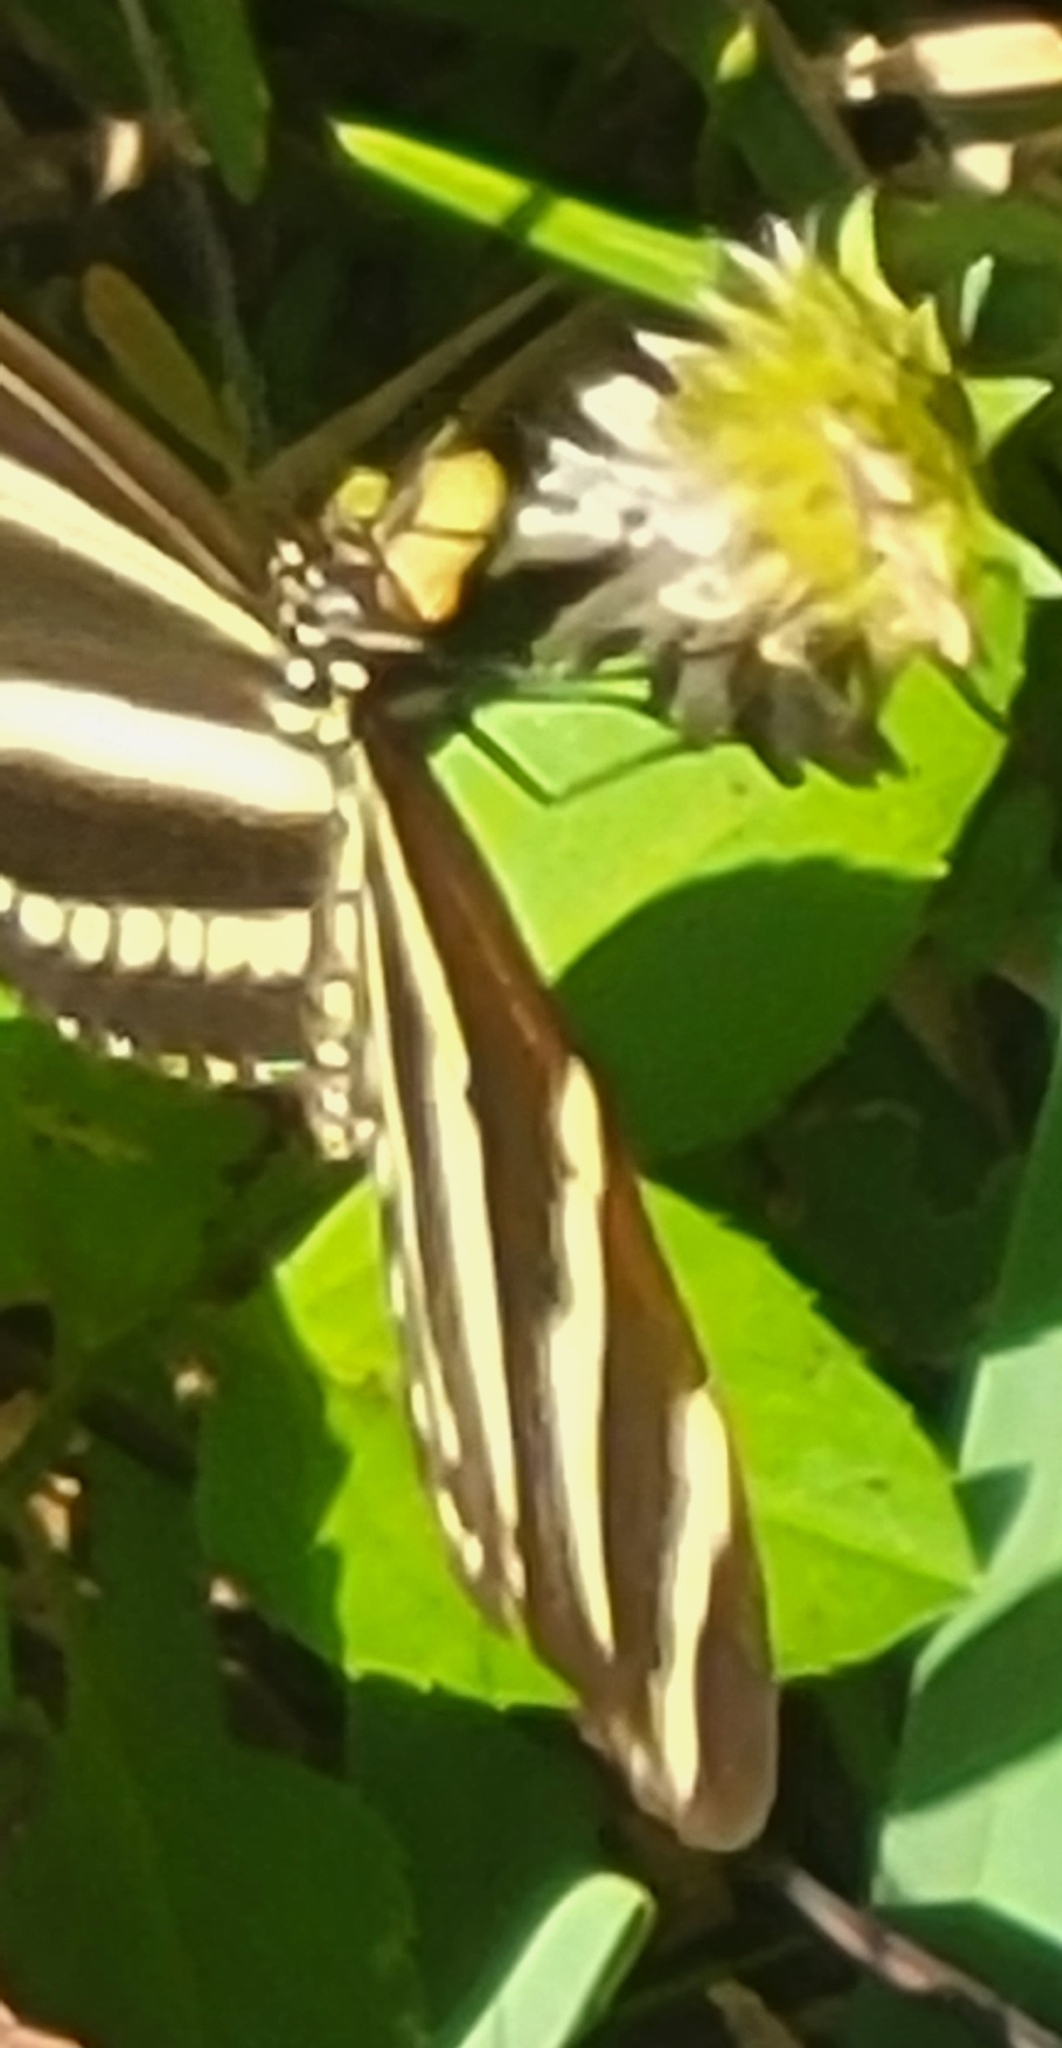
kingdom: Animalia
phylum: Arthropoda
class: Insecta
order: Lepidoptera
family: Nymphalidae
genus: Heliconius
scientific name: Heliconius charithonia
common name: Zebra long wing
